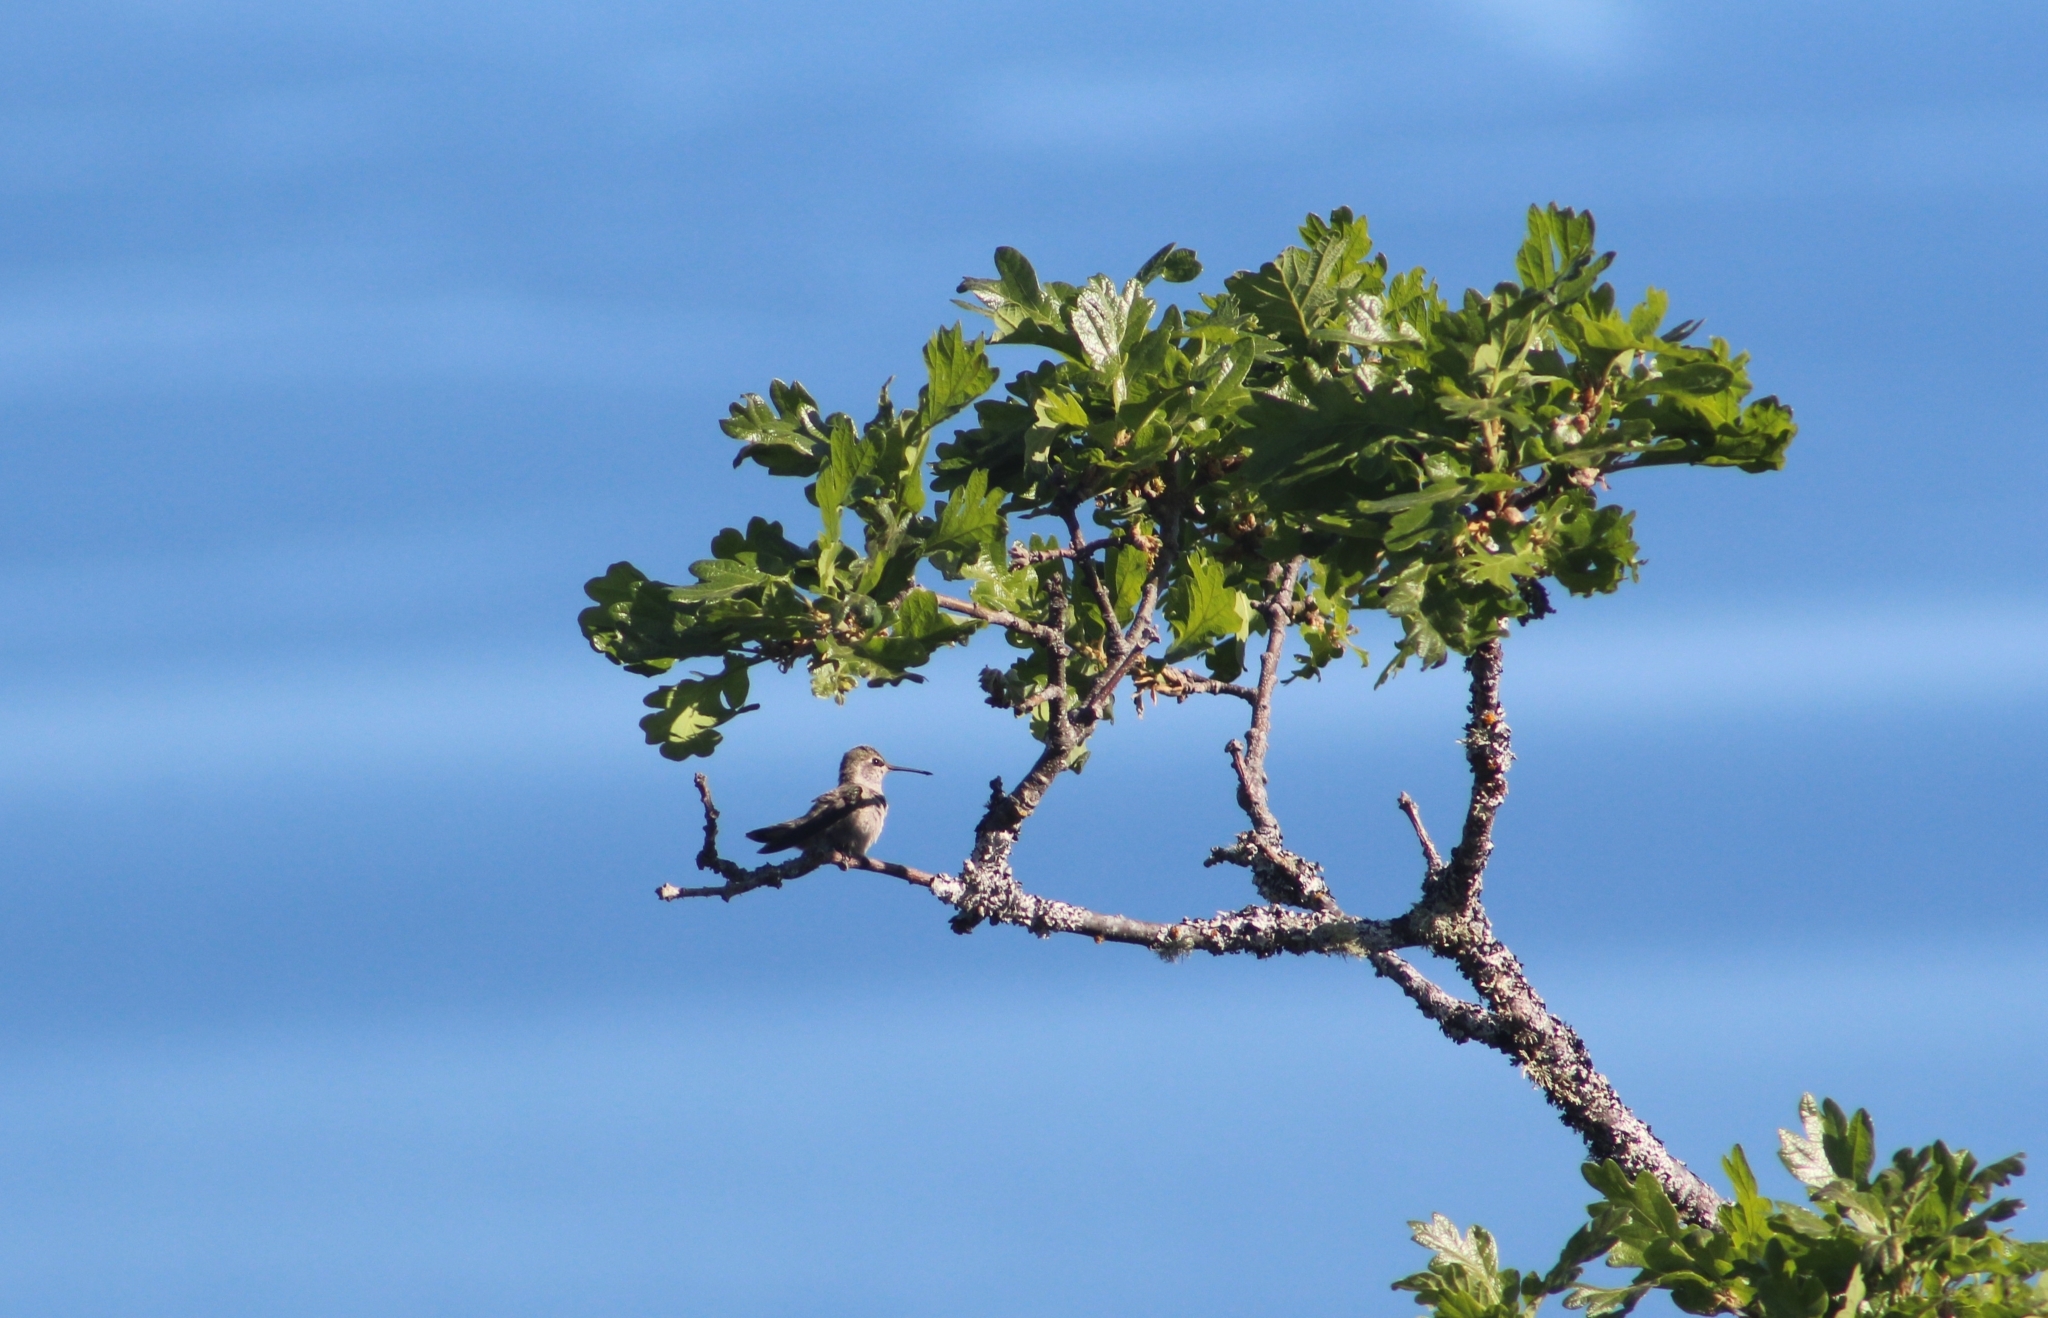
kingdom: Animalia
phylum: Chordata
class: Aves
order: Apodiformes
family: Trochilidae
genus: Calypte
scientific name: Calypte anna
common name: Anna's hummingbird
